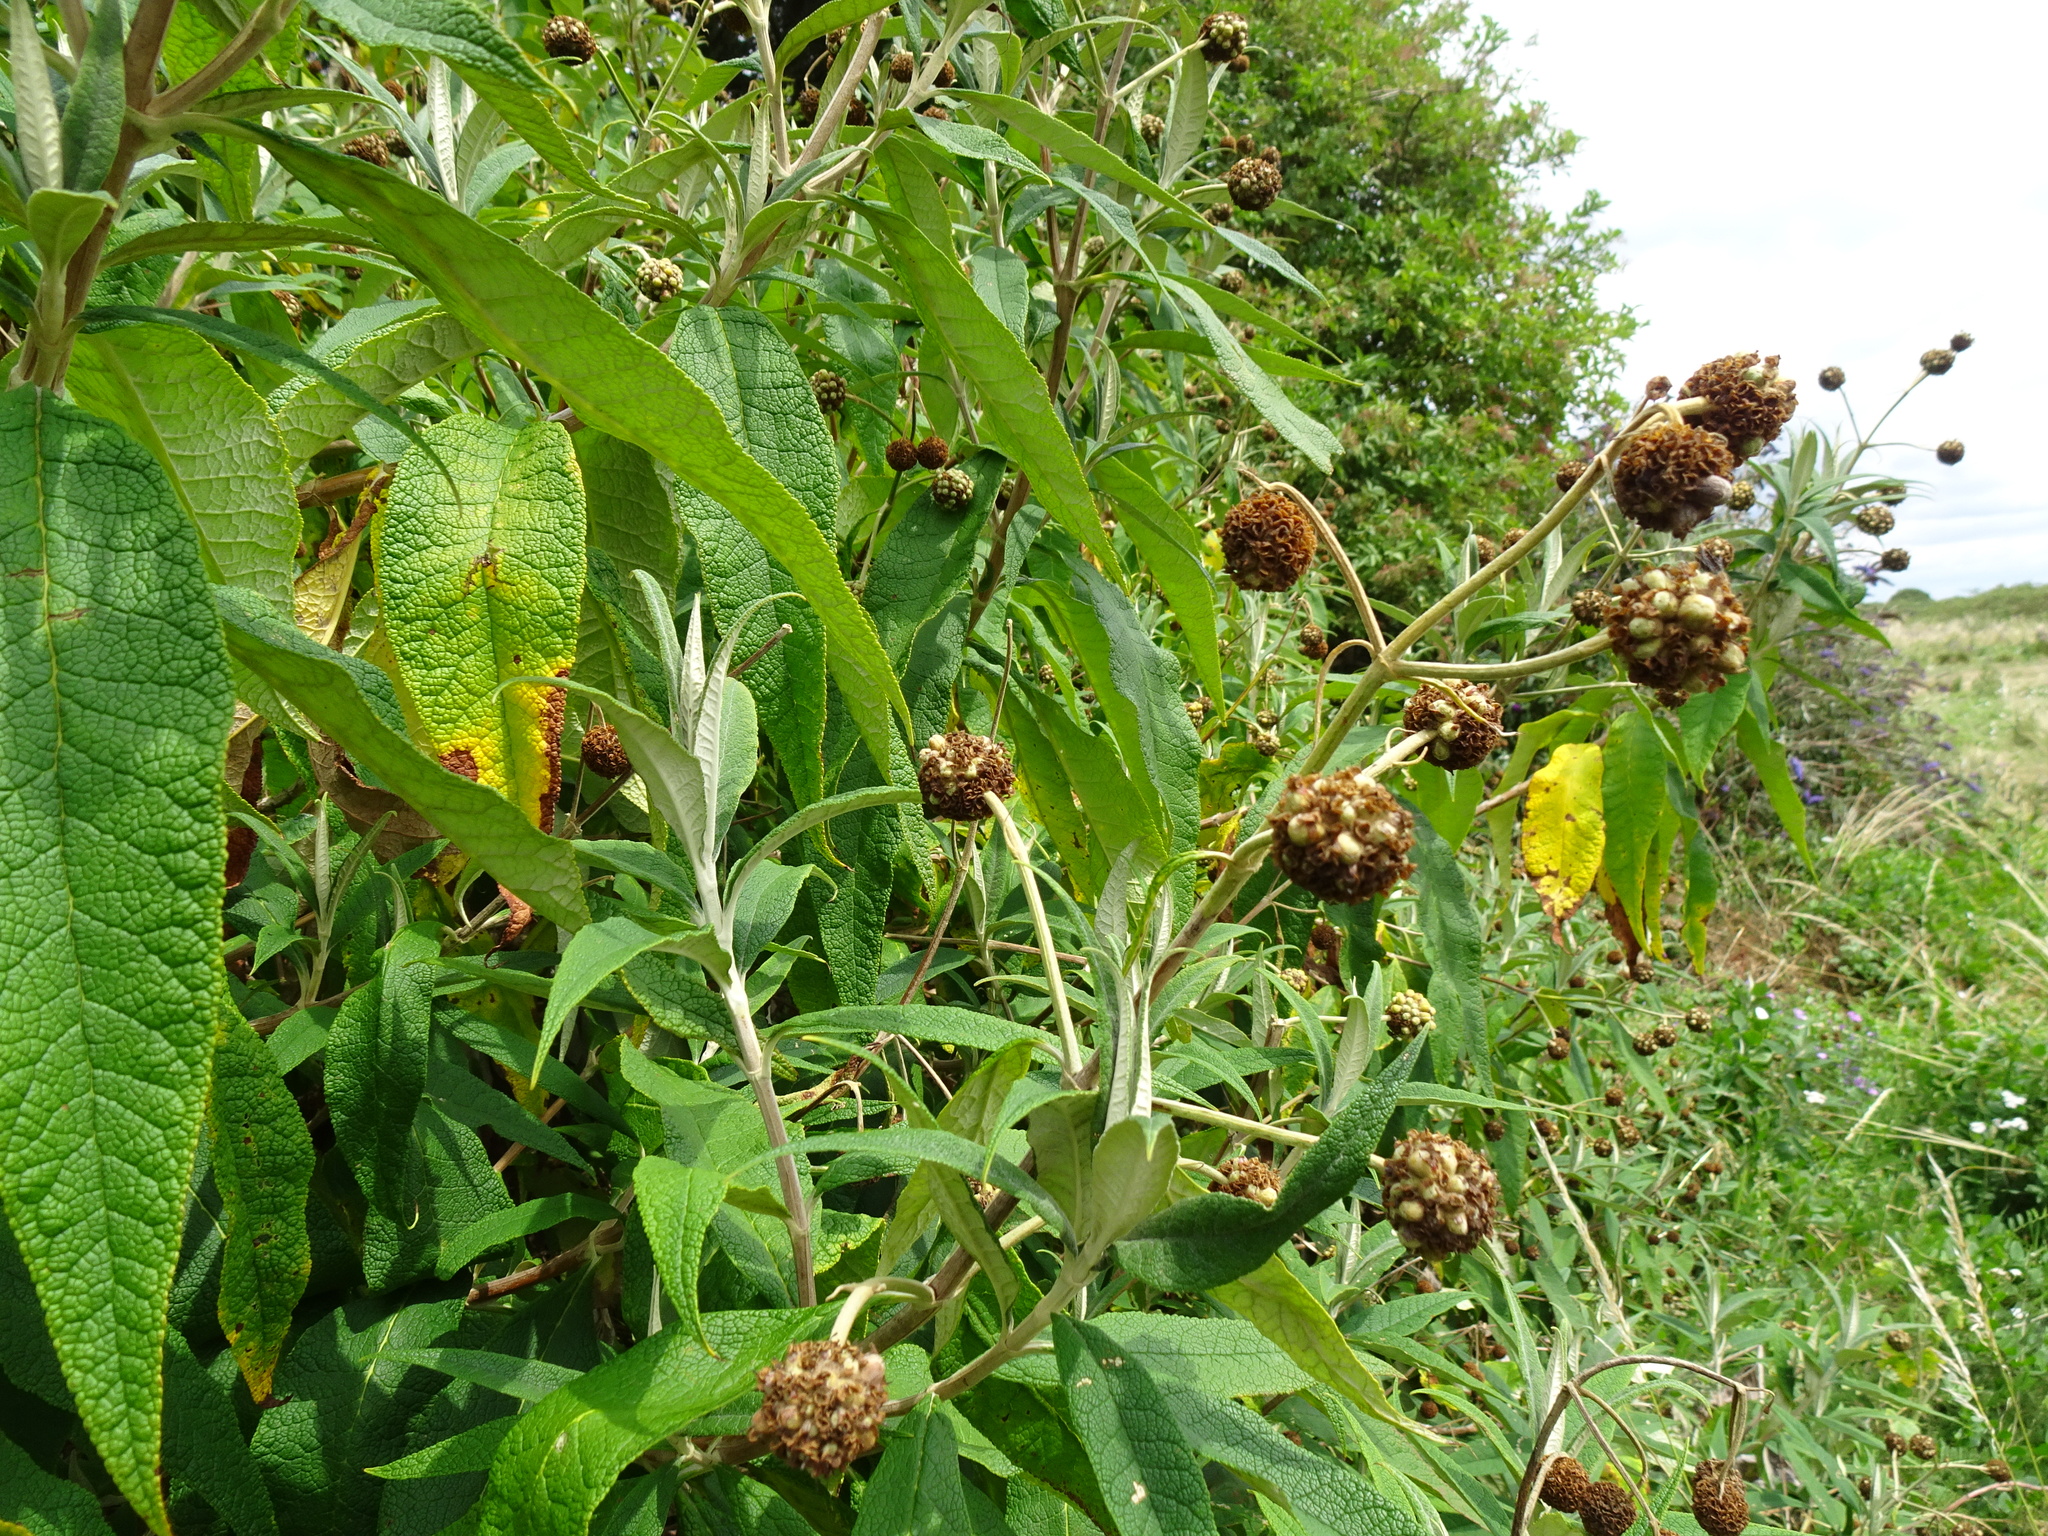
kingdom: Plantae
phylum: Tracheophyta
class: Magnoliopsida
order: Lamiales
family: Scrophulariaceae
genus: Buddleja
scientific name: Buddleja globosa
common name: Orange-ball-tree
